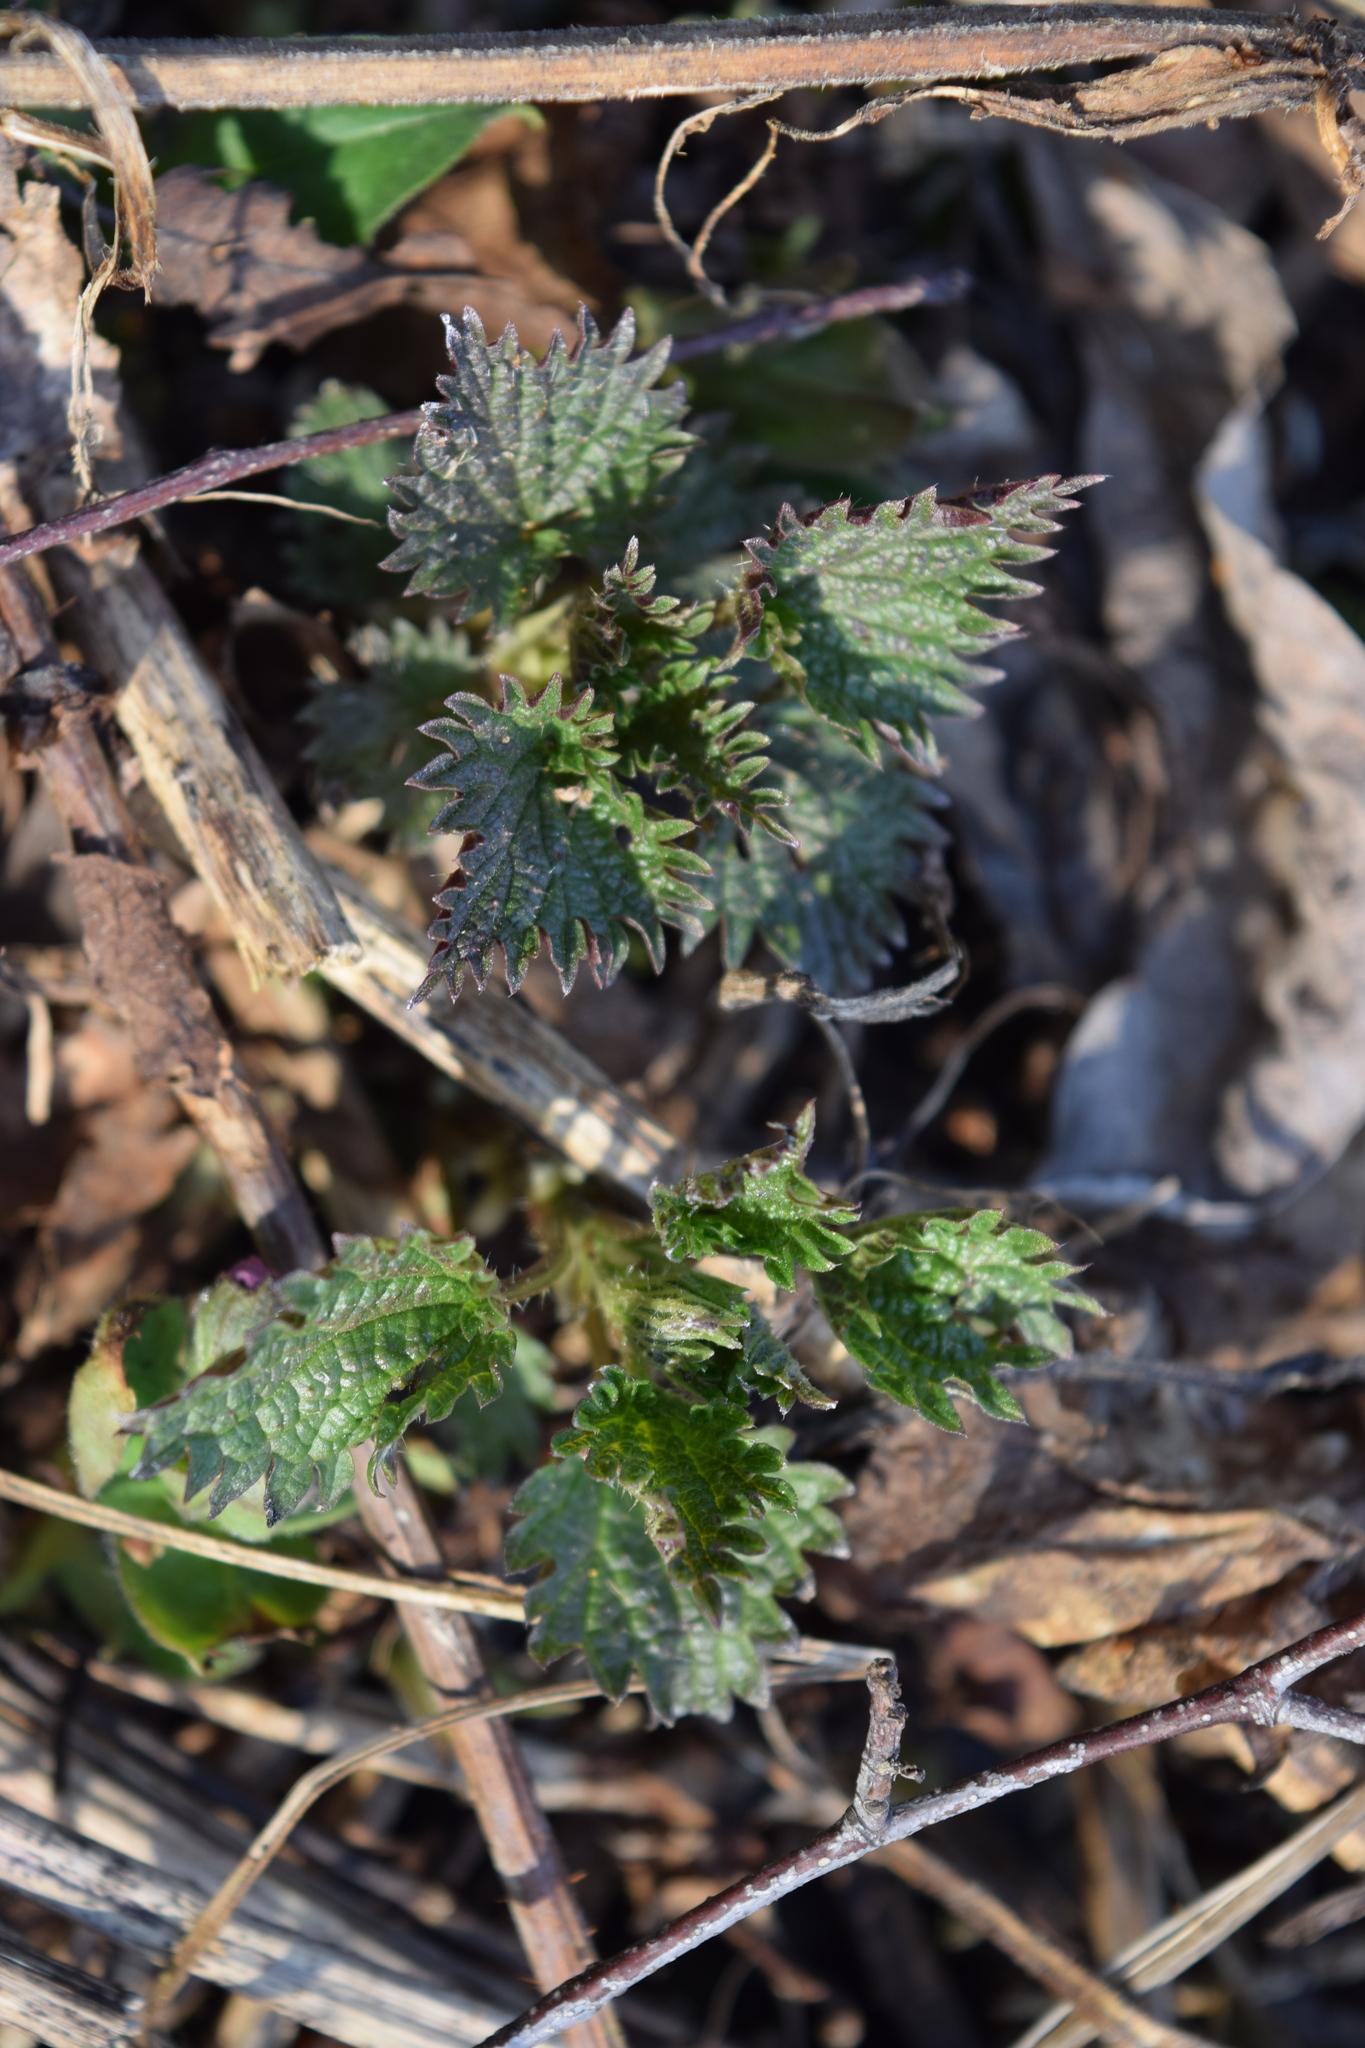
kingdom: Plantae
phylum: Tracheophyta
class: Magnoliopsida
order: Rosales
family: Urticaceae
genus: Urtica
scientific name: Urtica dioica
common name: Common nettle
